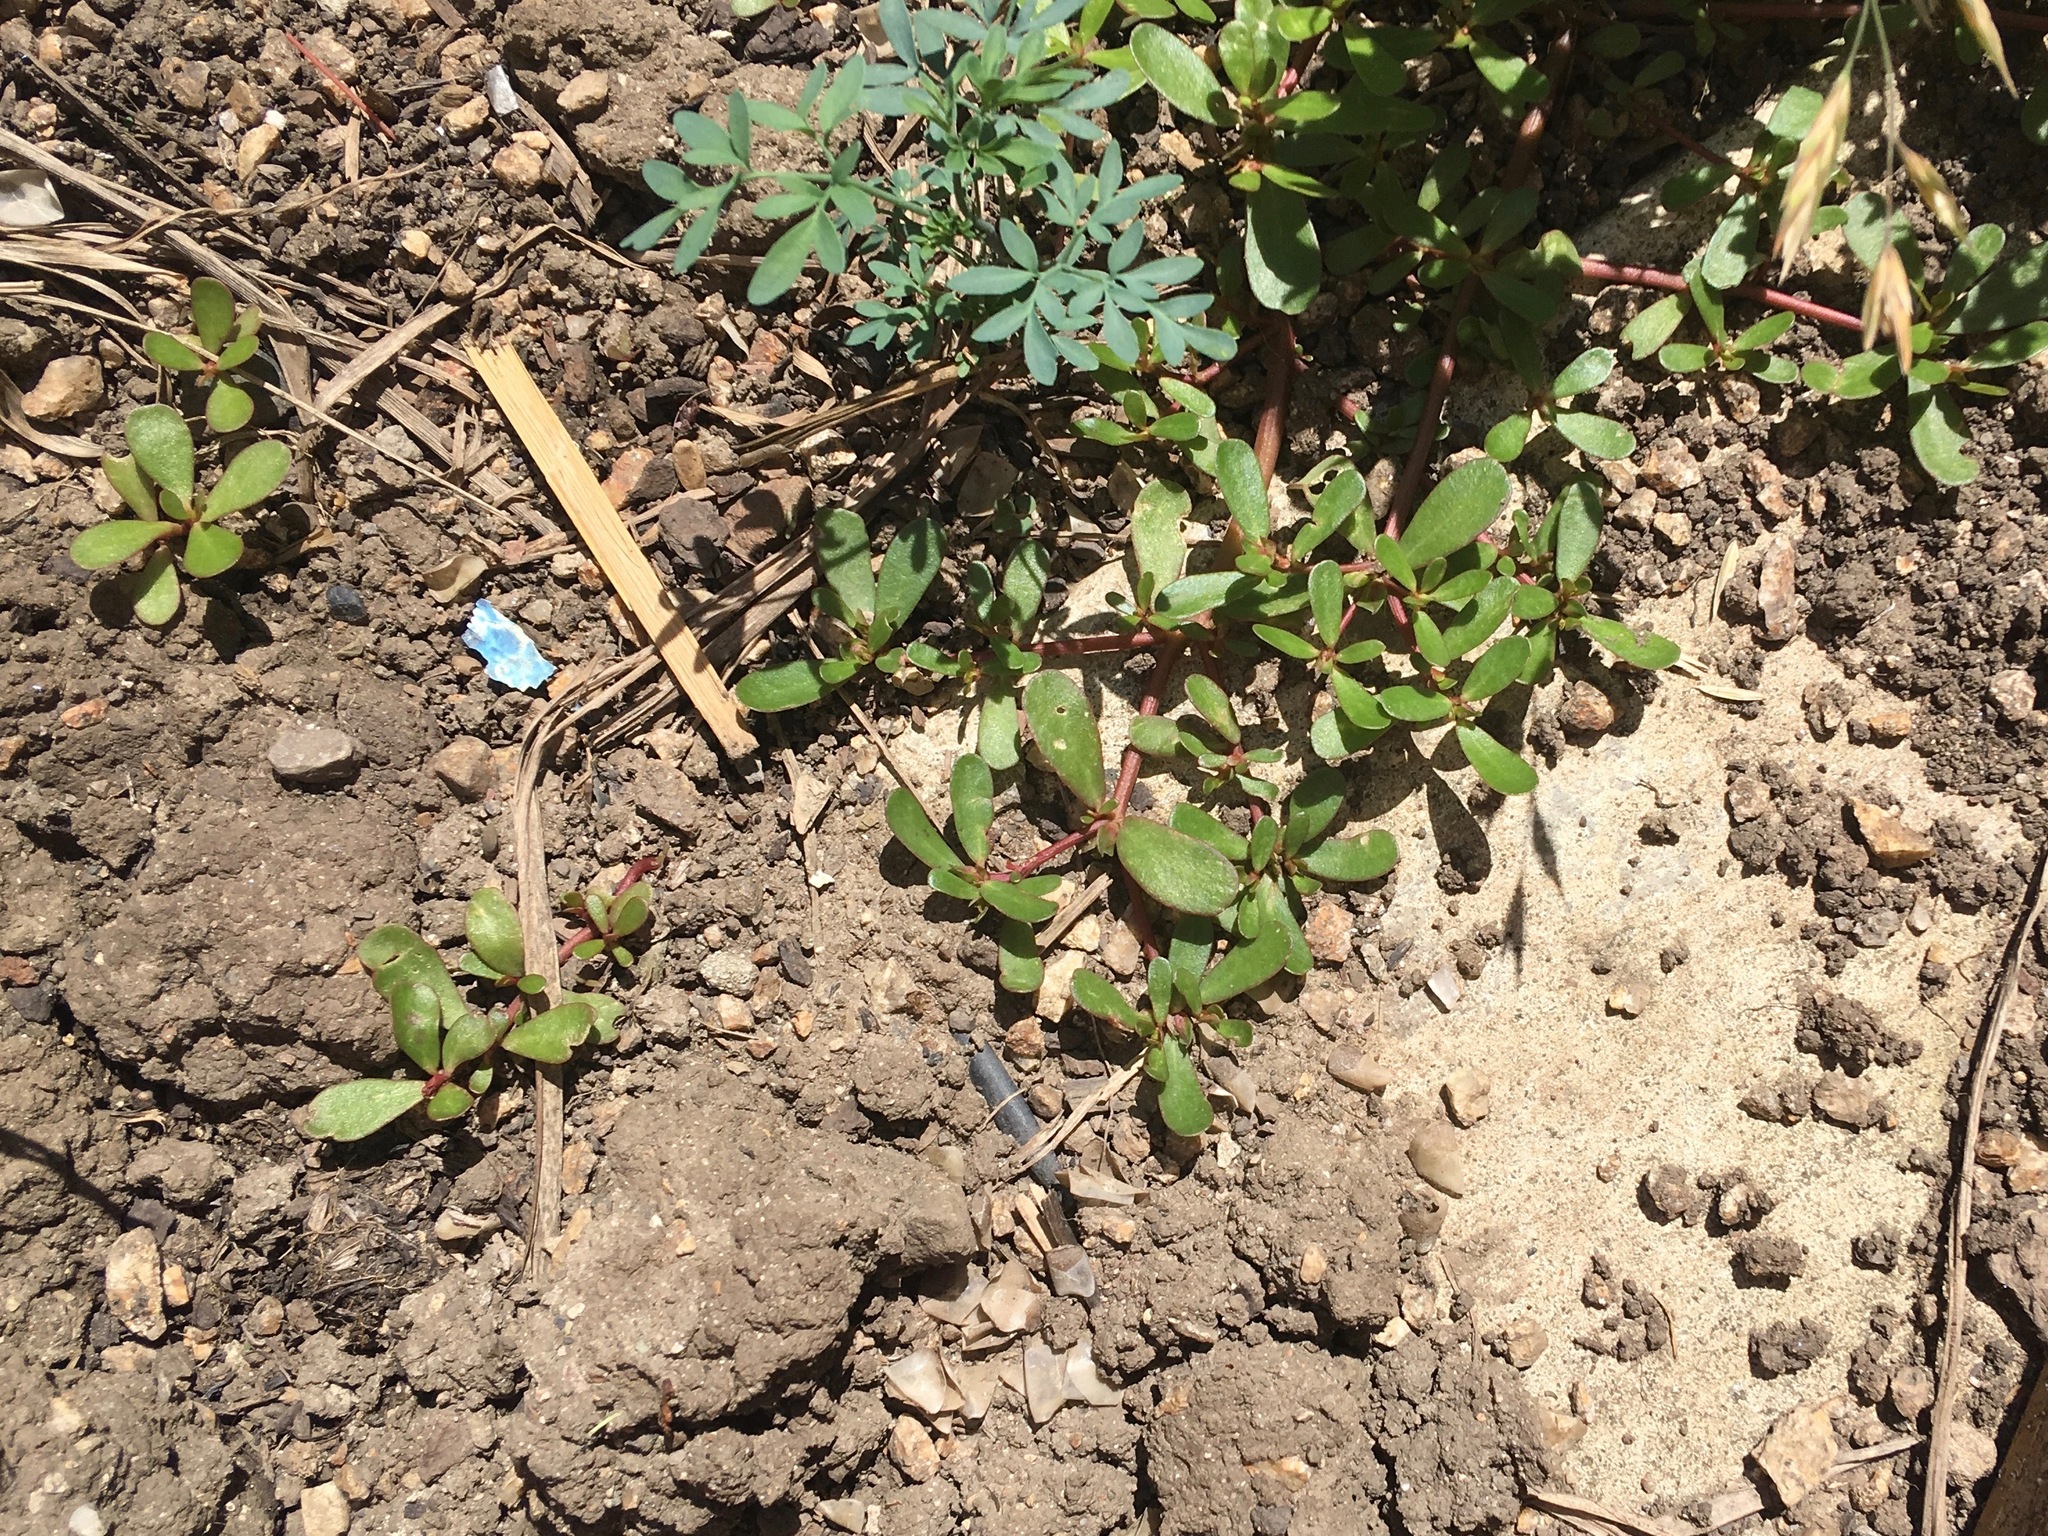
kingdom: Plantae
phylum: Tracheophyta
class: Magnoliopsida
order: Caryophyllales
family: Portulacaceae
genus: Portulaca
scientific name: Portulaca oleracea
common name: Common purslane
